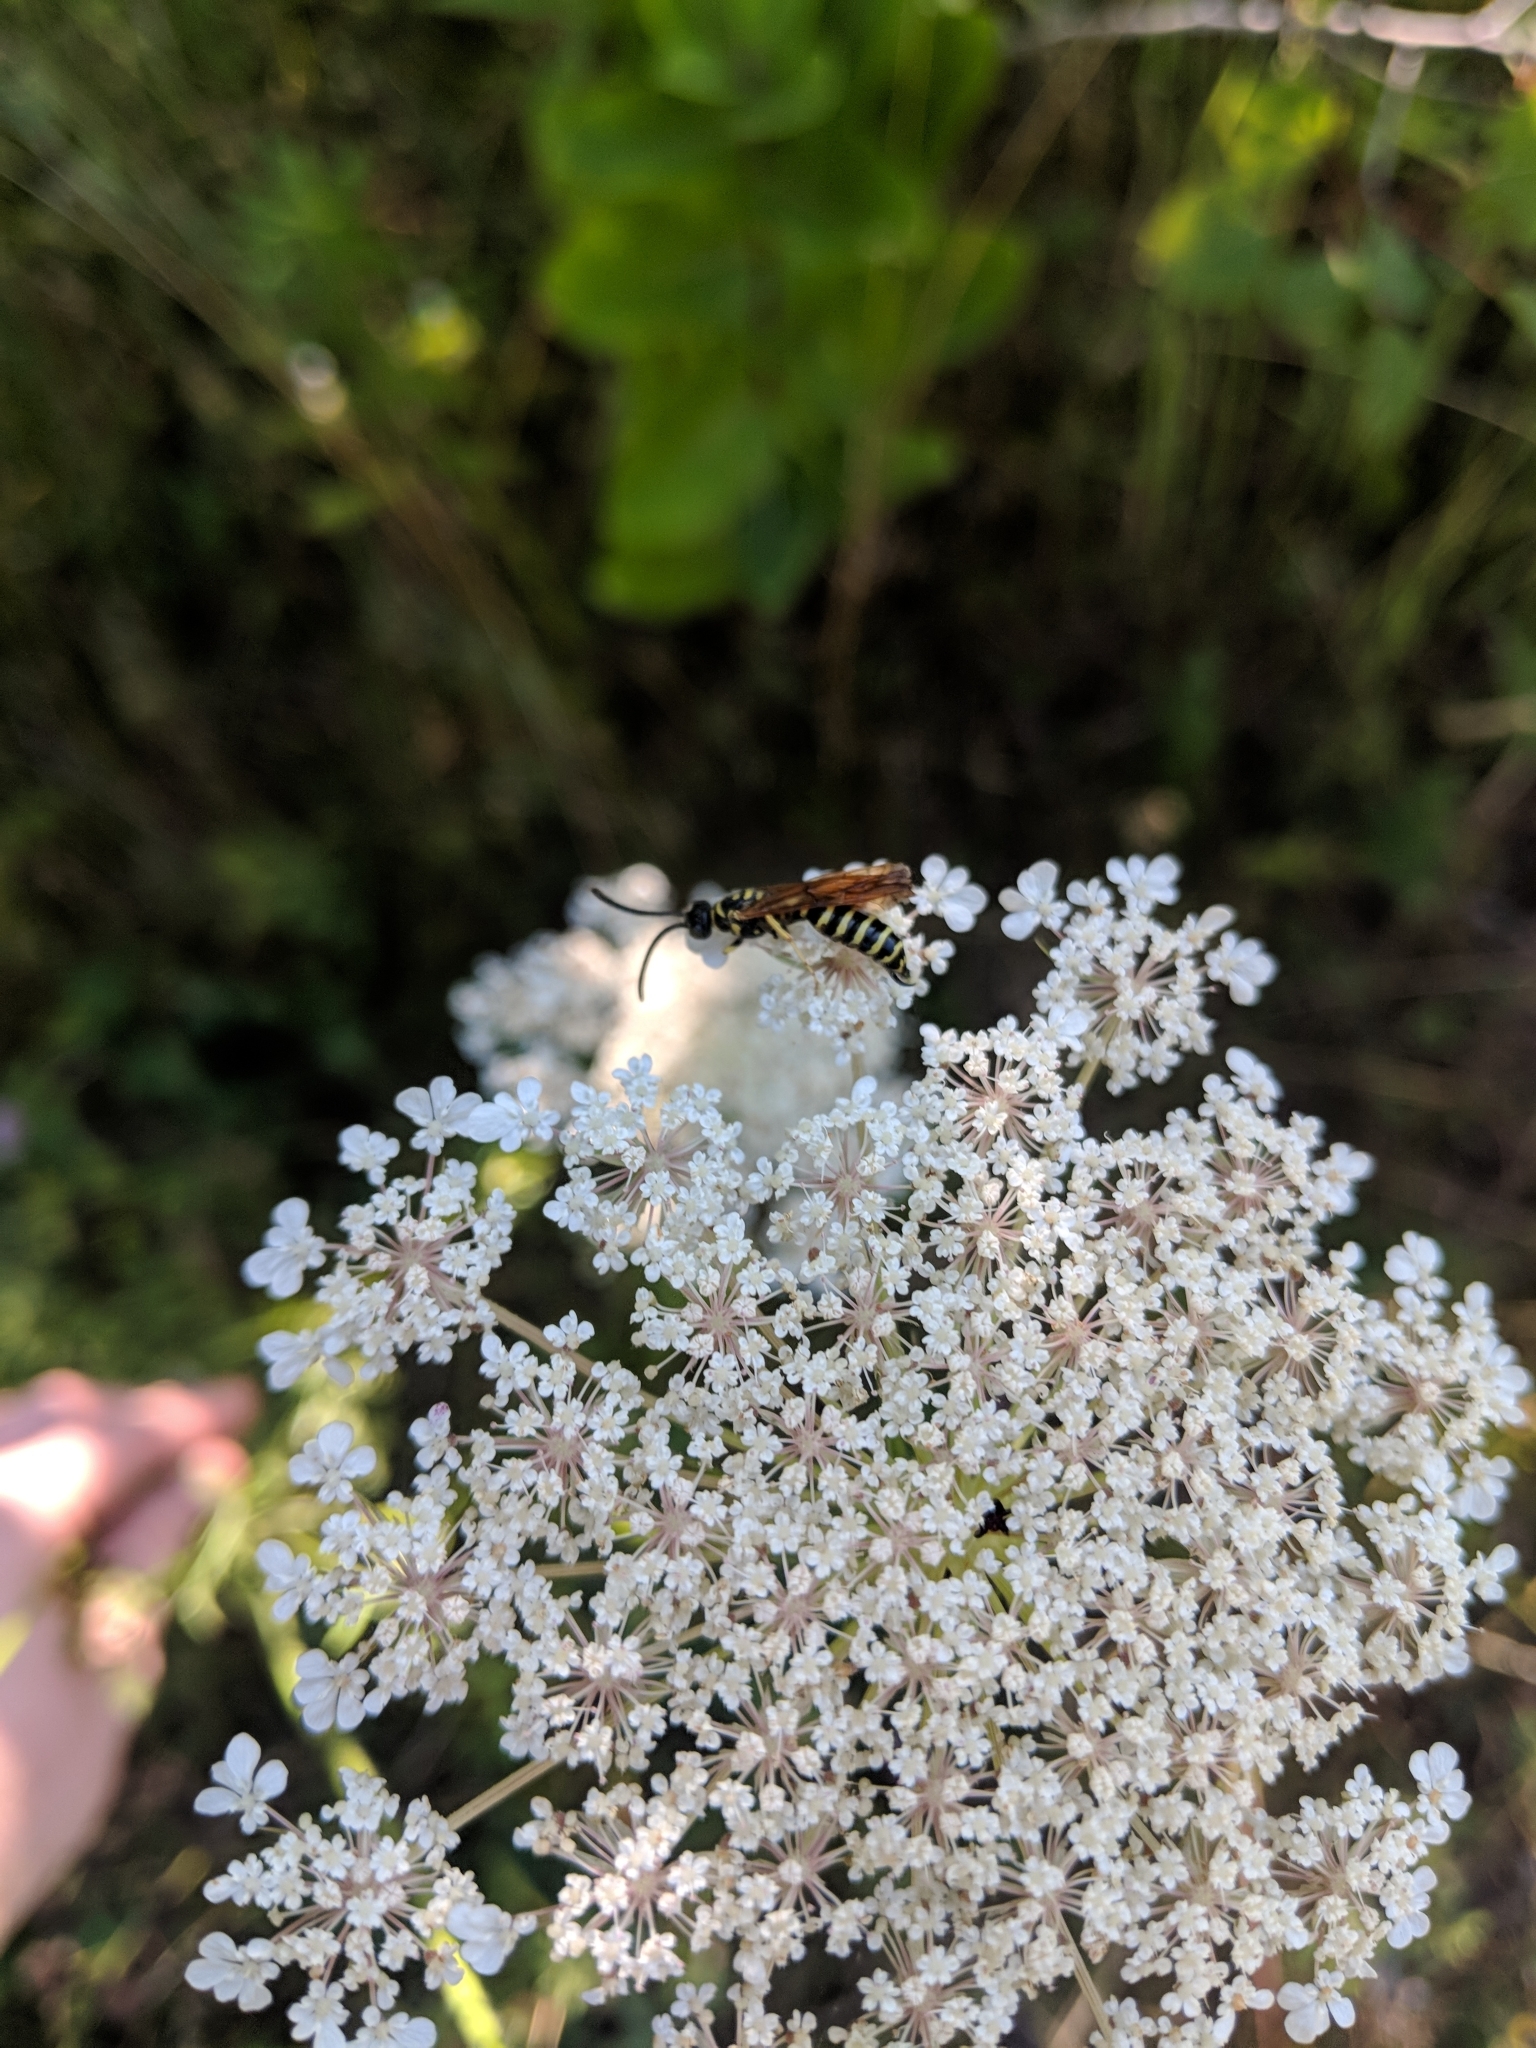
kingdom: Animalia
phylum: Arthropoda
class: Insecta
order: Hymenoptera
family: Tiphiidae
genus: Myzinum
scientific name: Myzinum quinquecinctum
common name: Five-banded thynnid wasp
